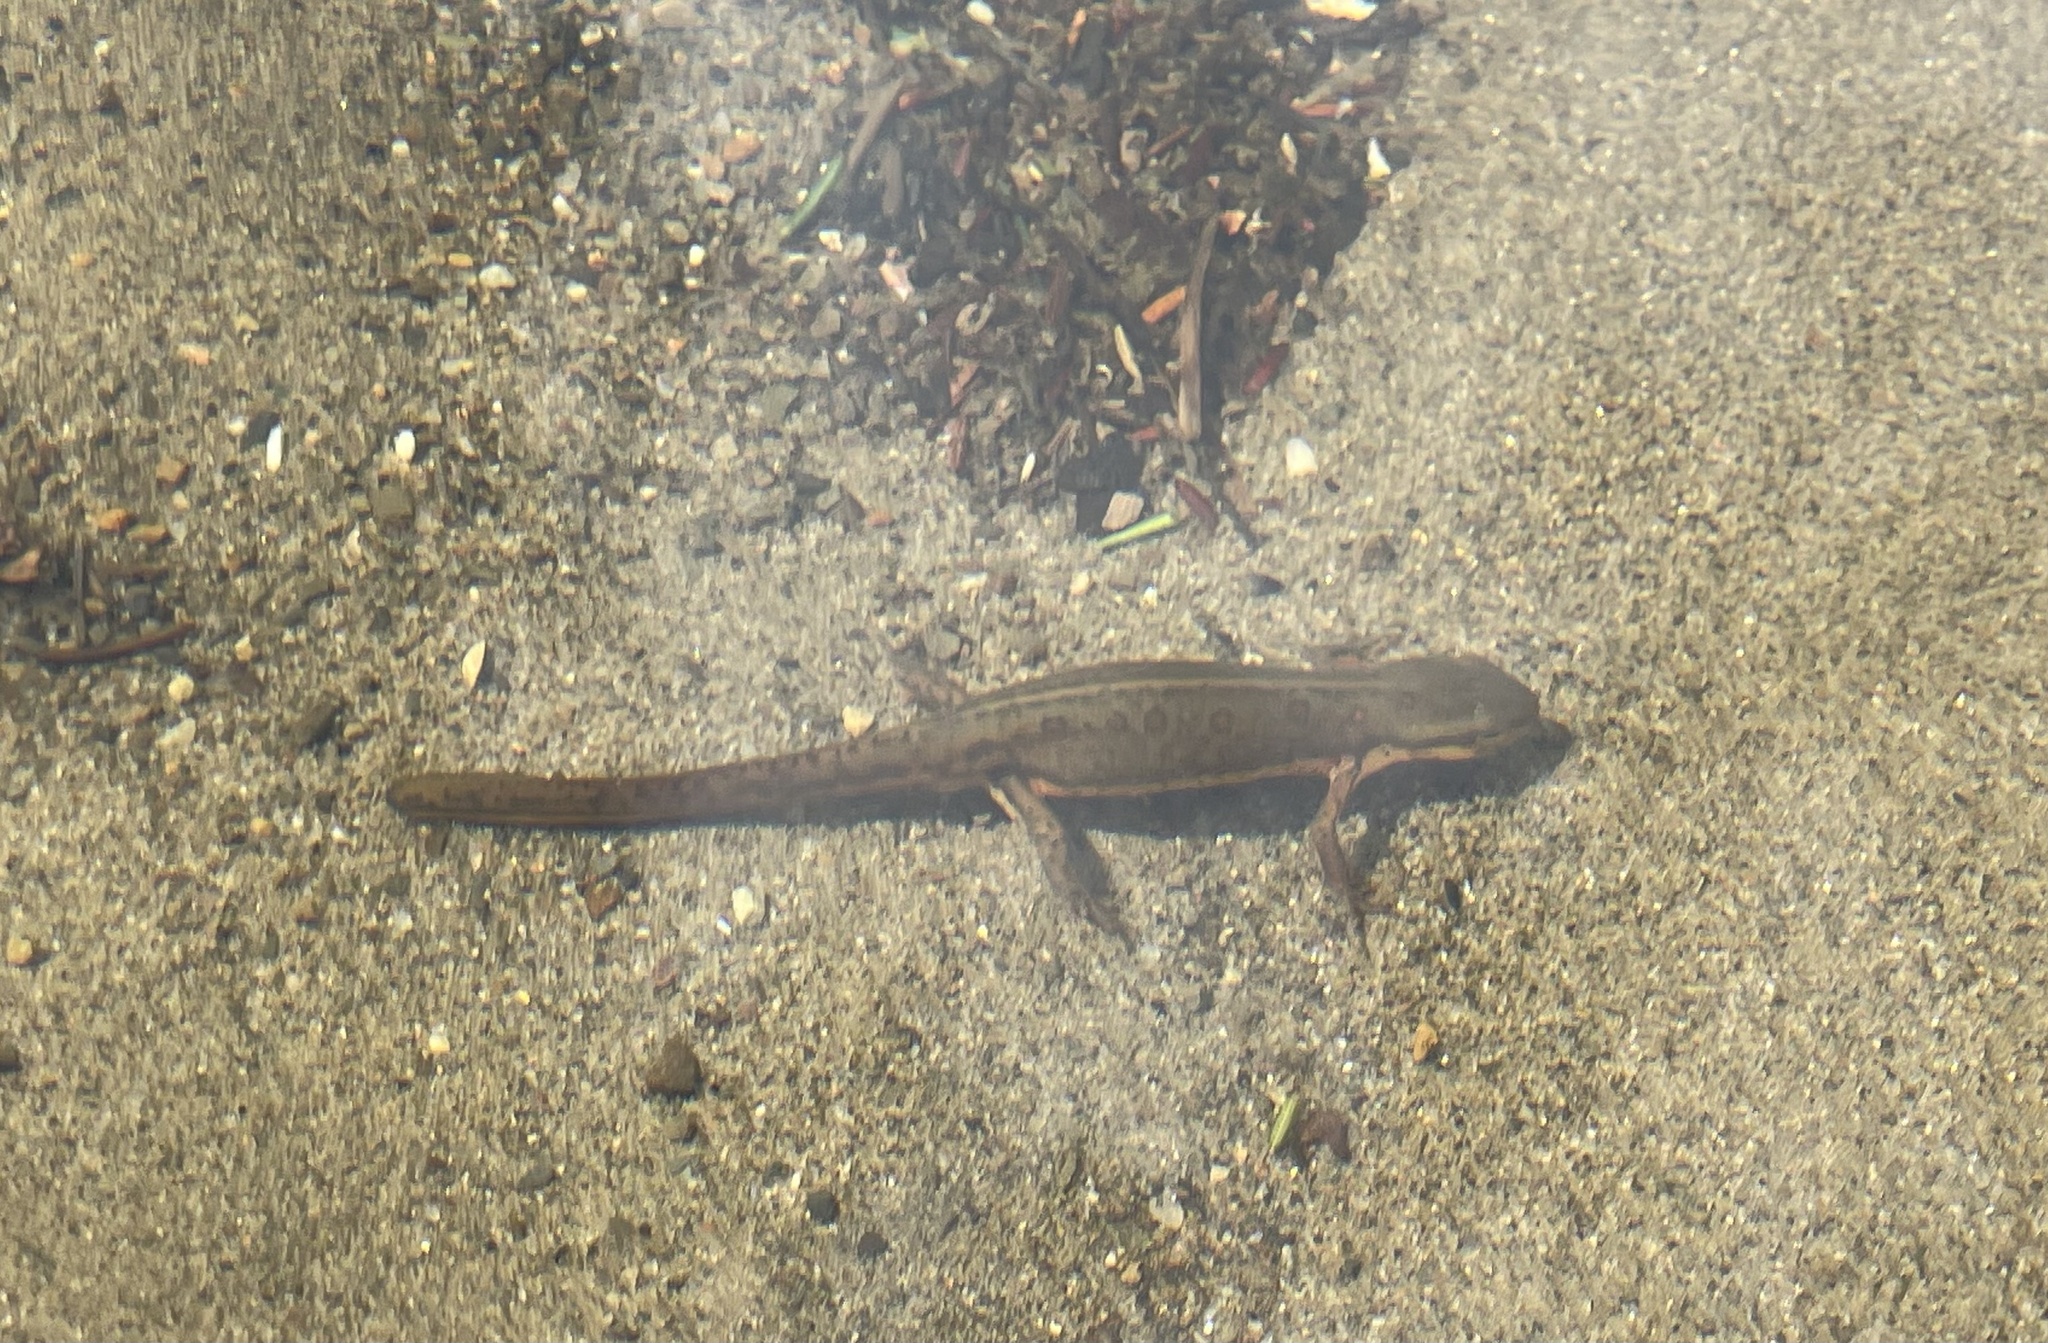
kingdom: Animalia
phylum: Chordata
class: Amphibia
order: Caudata
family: Salamandridae
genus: Notophthalmus
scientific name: Notophthalmus viridescens
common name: Eastern newt
